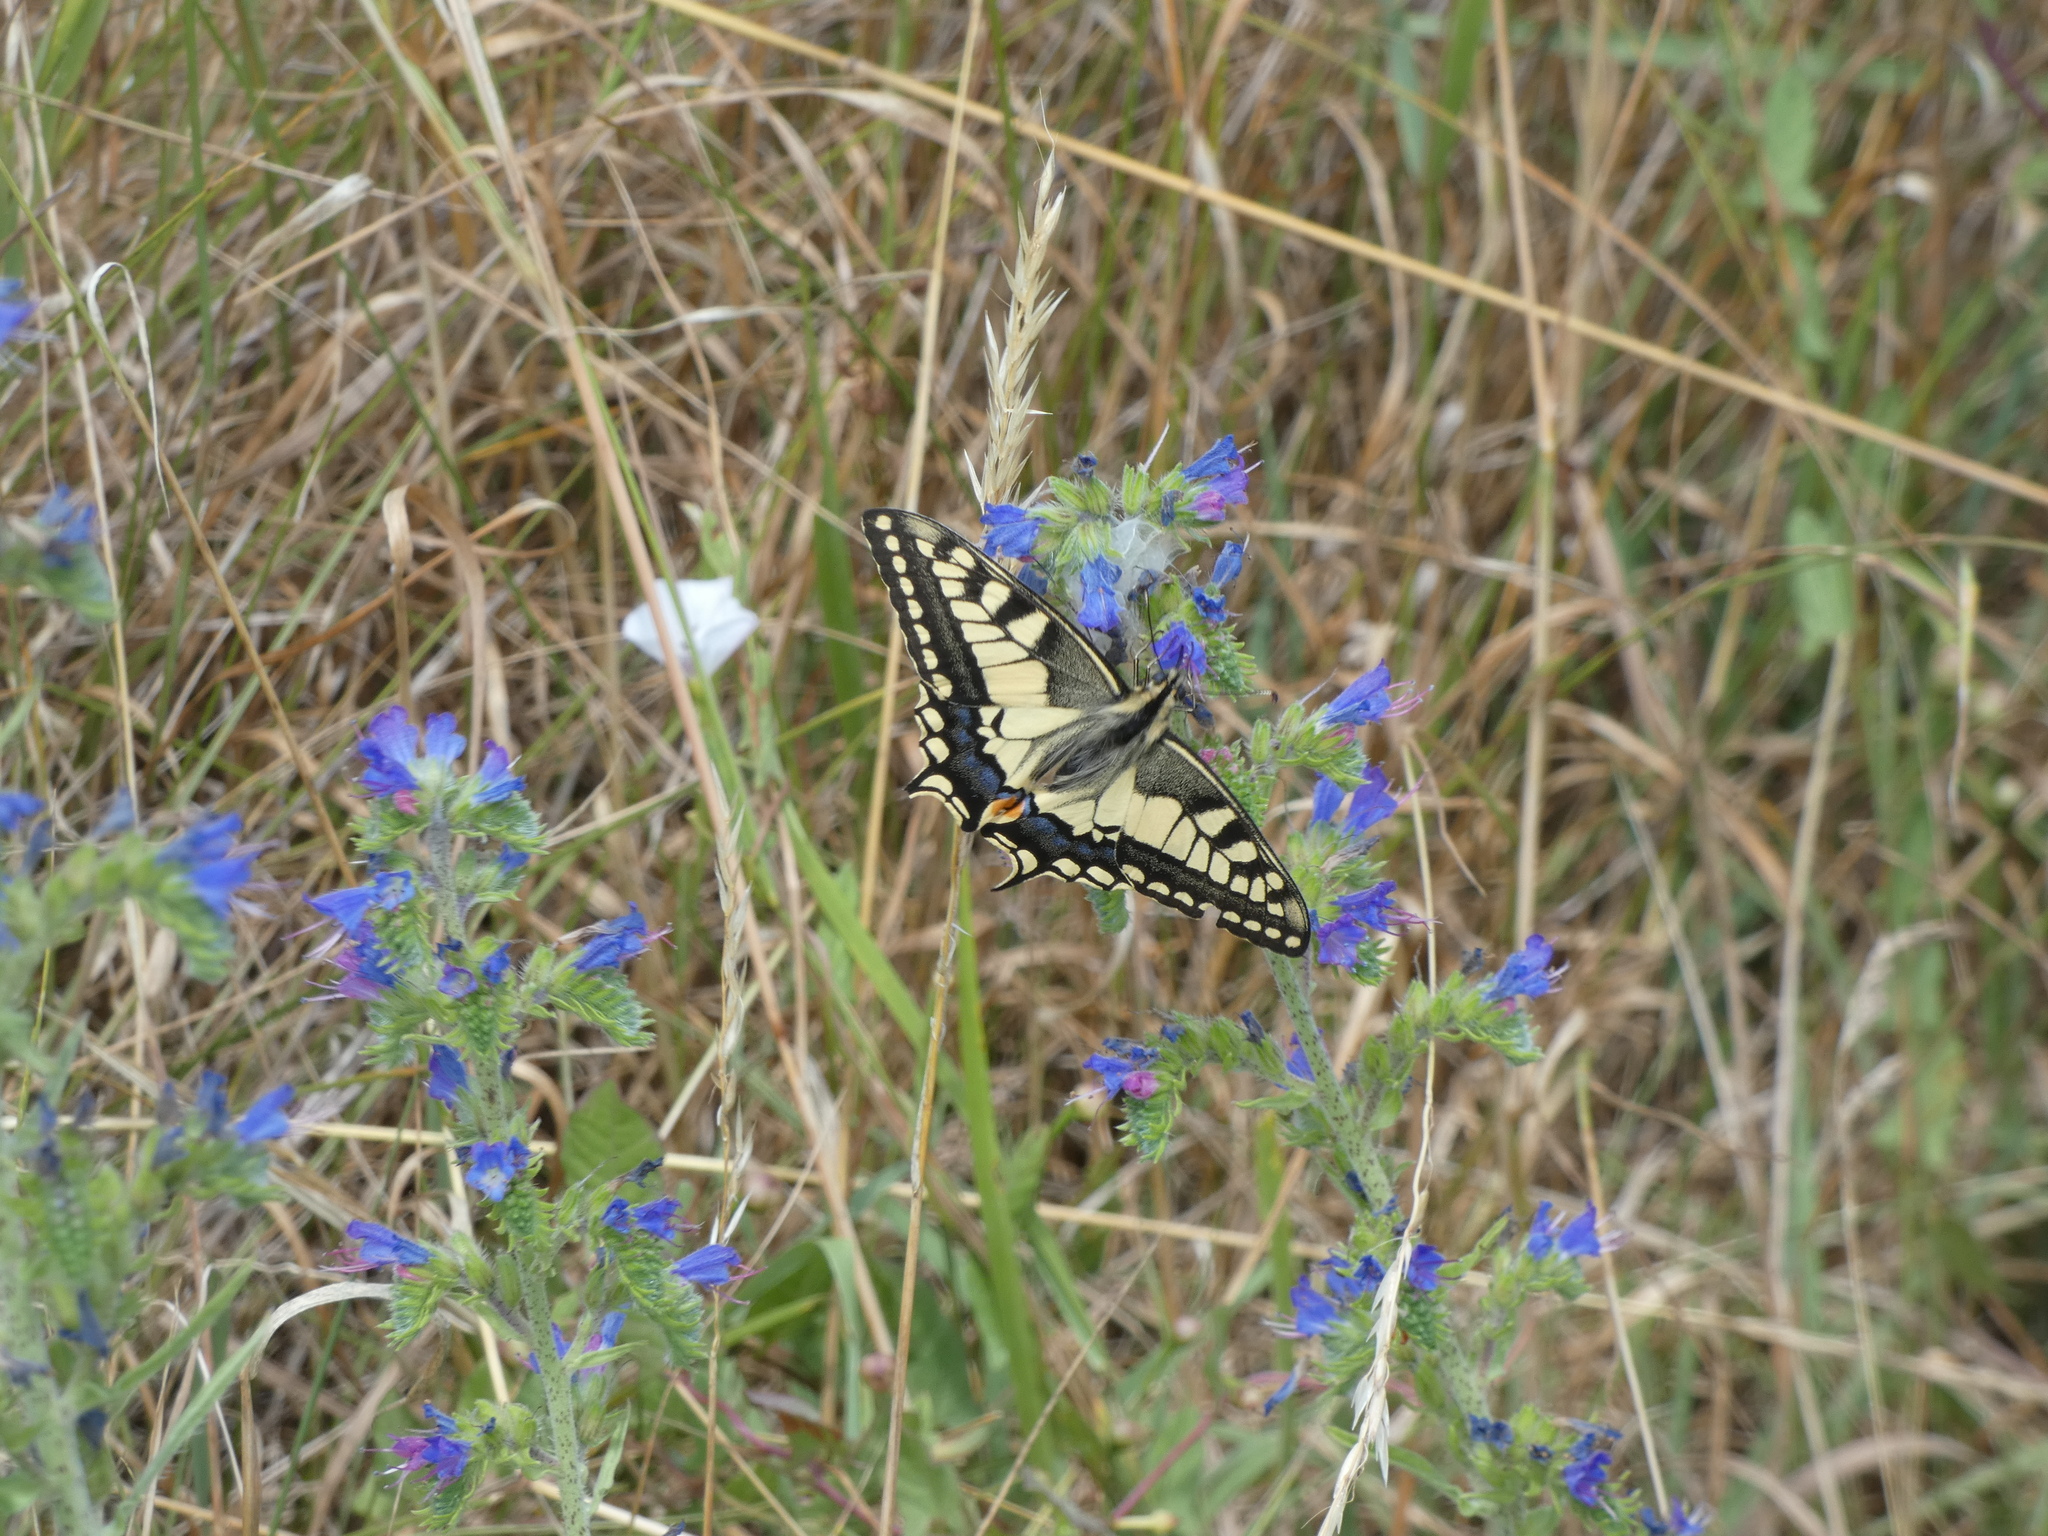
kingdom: Animalia
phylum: Arthropoda
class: Insecta
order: Lepidoptera
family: Papilionidae
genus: Papilio
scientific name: Papilio machaon
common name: Swallowtail
